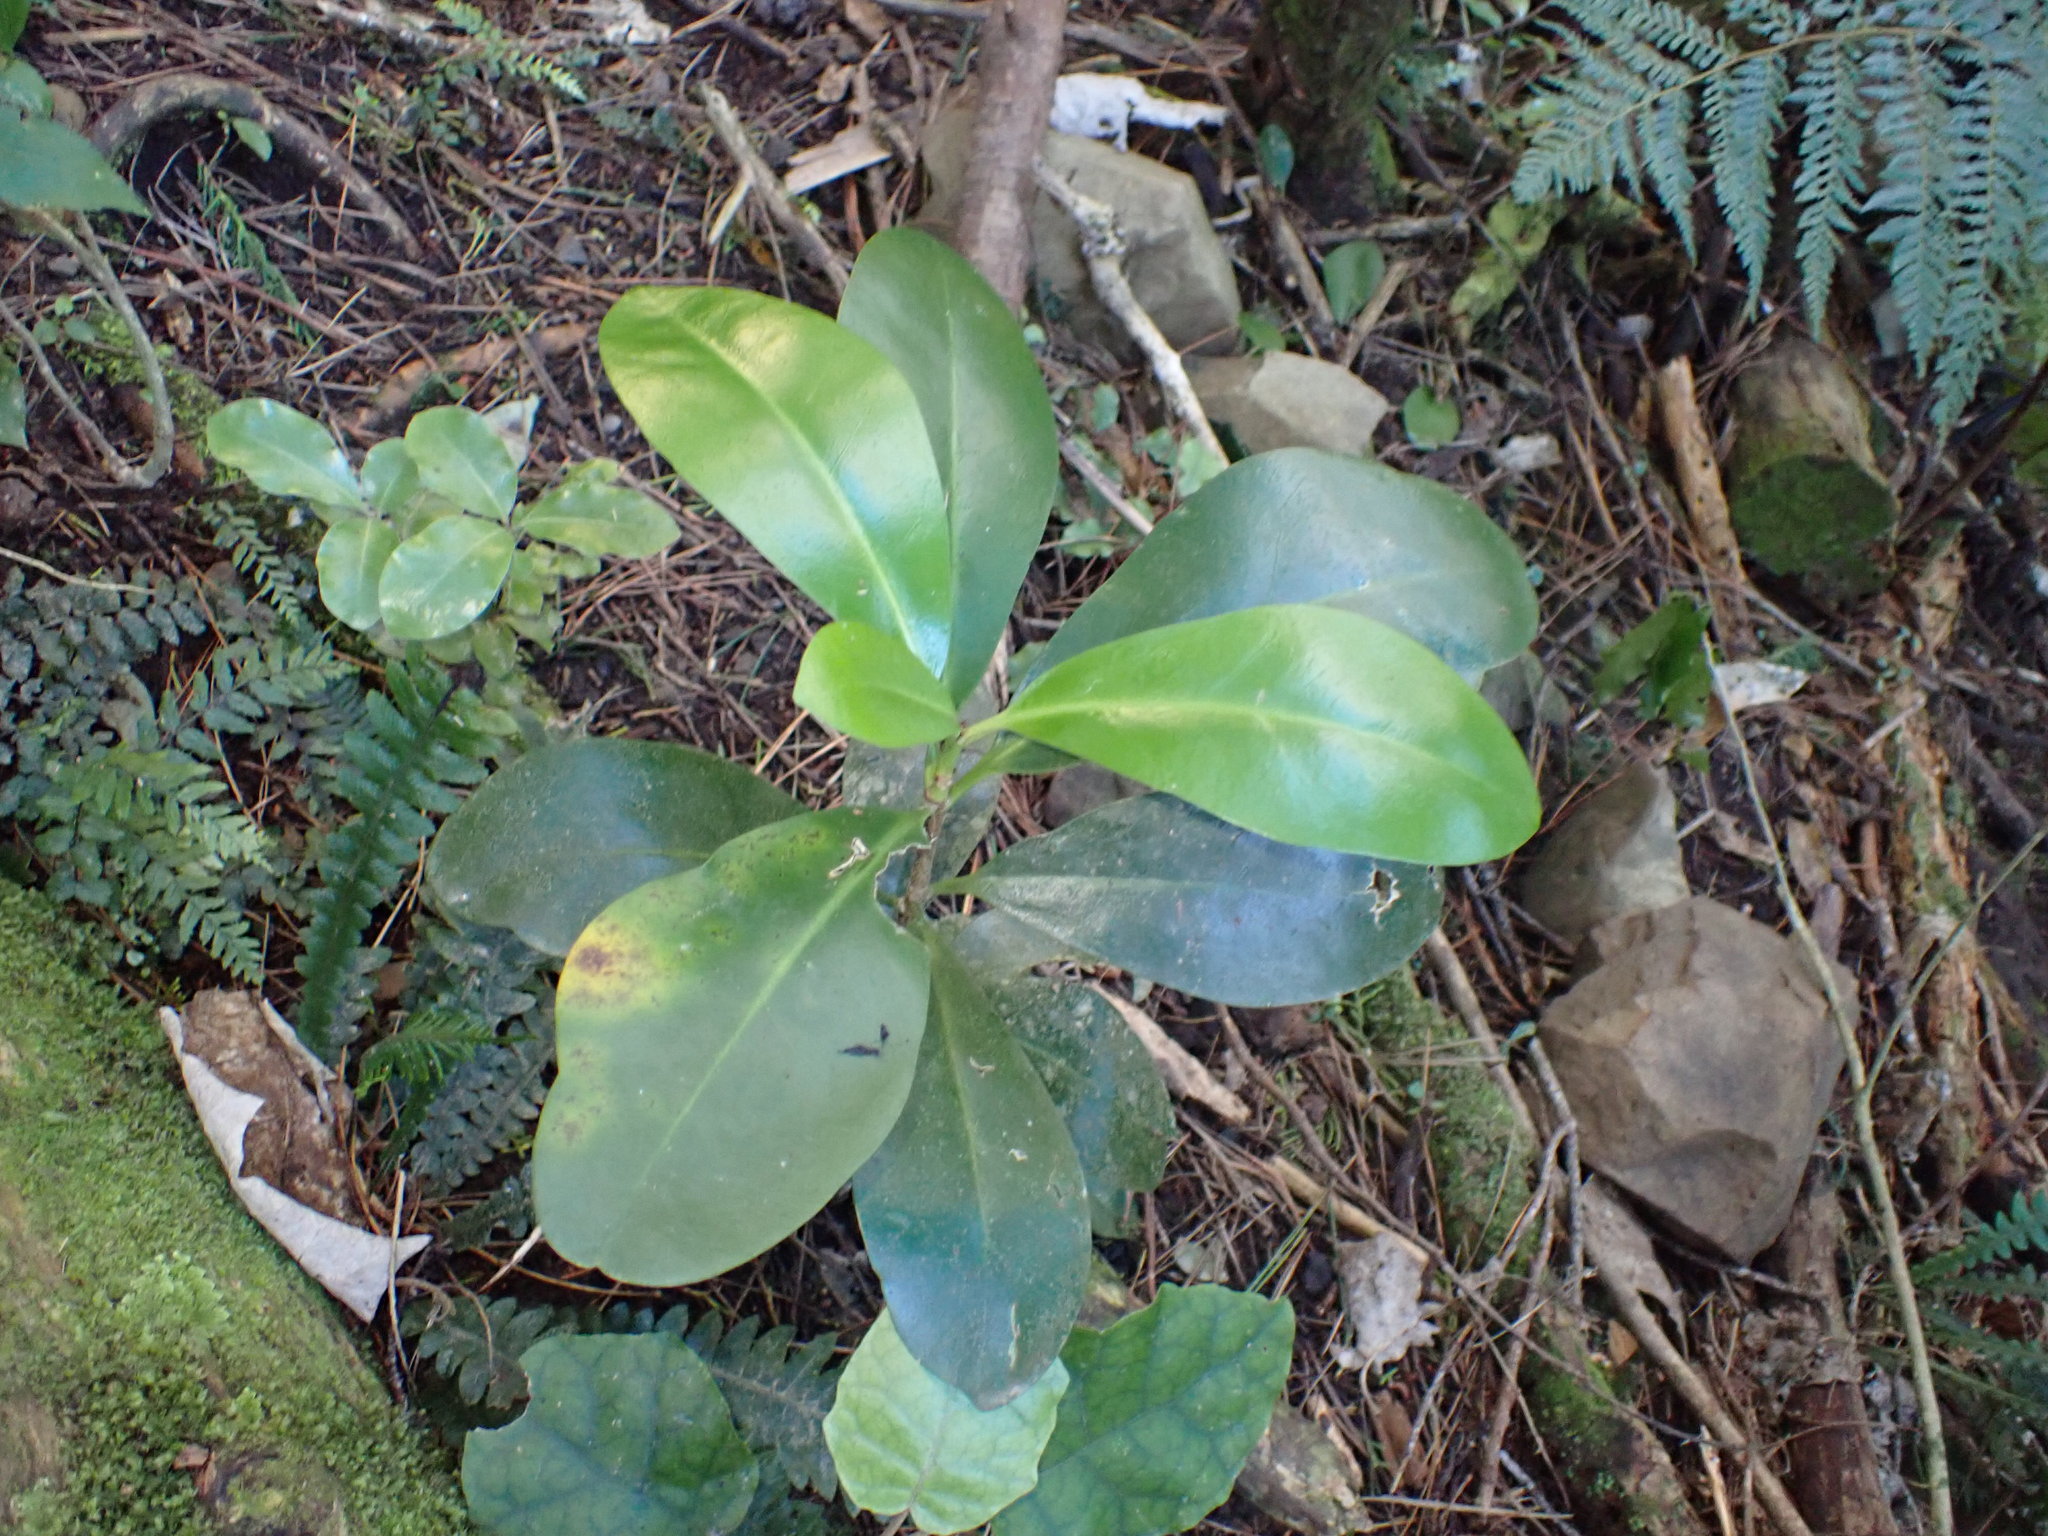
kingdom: Plantae
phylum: Tracheophyta
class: Magnoliopsida
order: Cucurbitales
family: Corynocarpaceae
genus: Corynocarpus
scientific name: Corynocarpus laevigatus
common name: New zealand laurel
